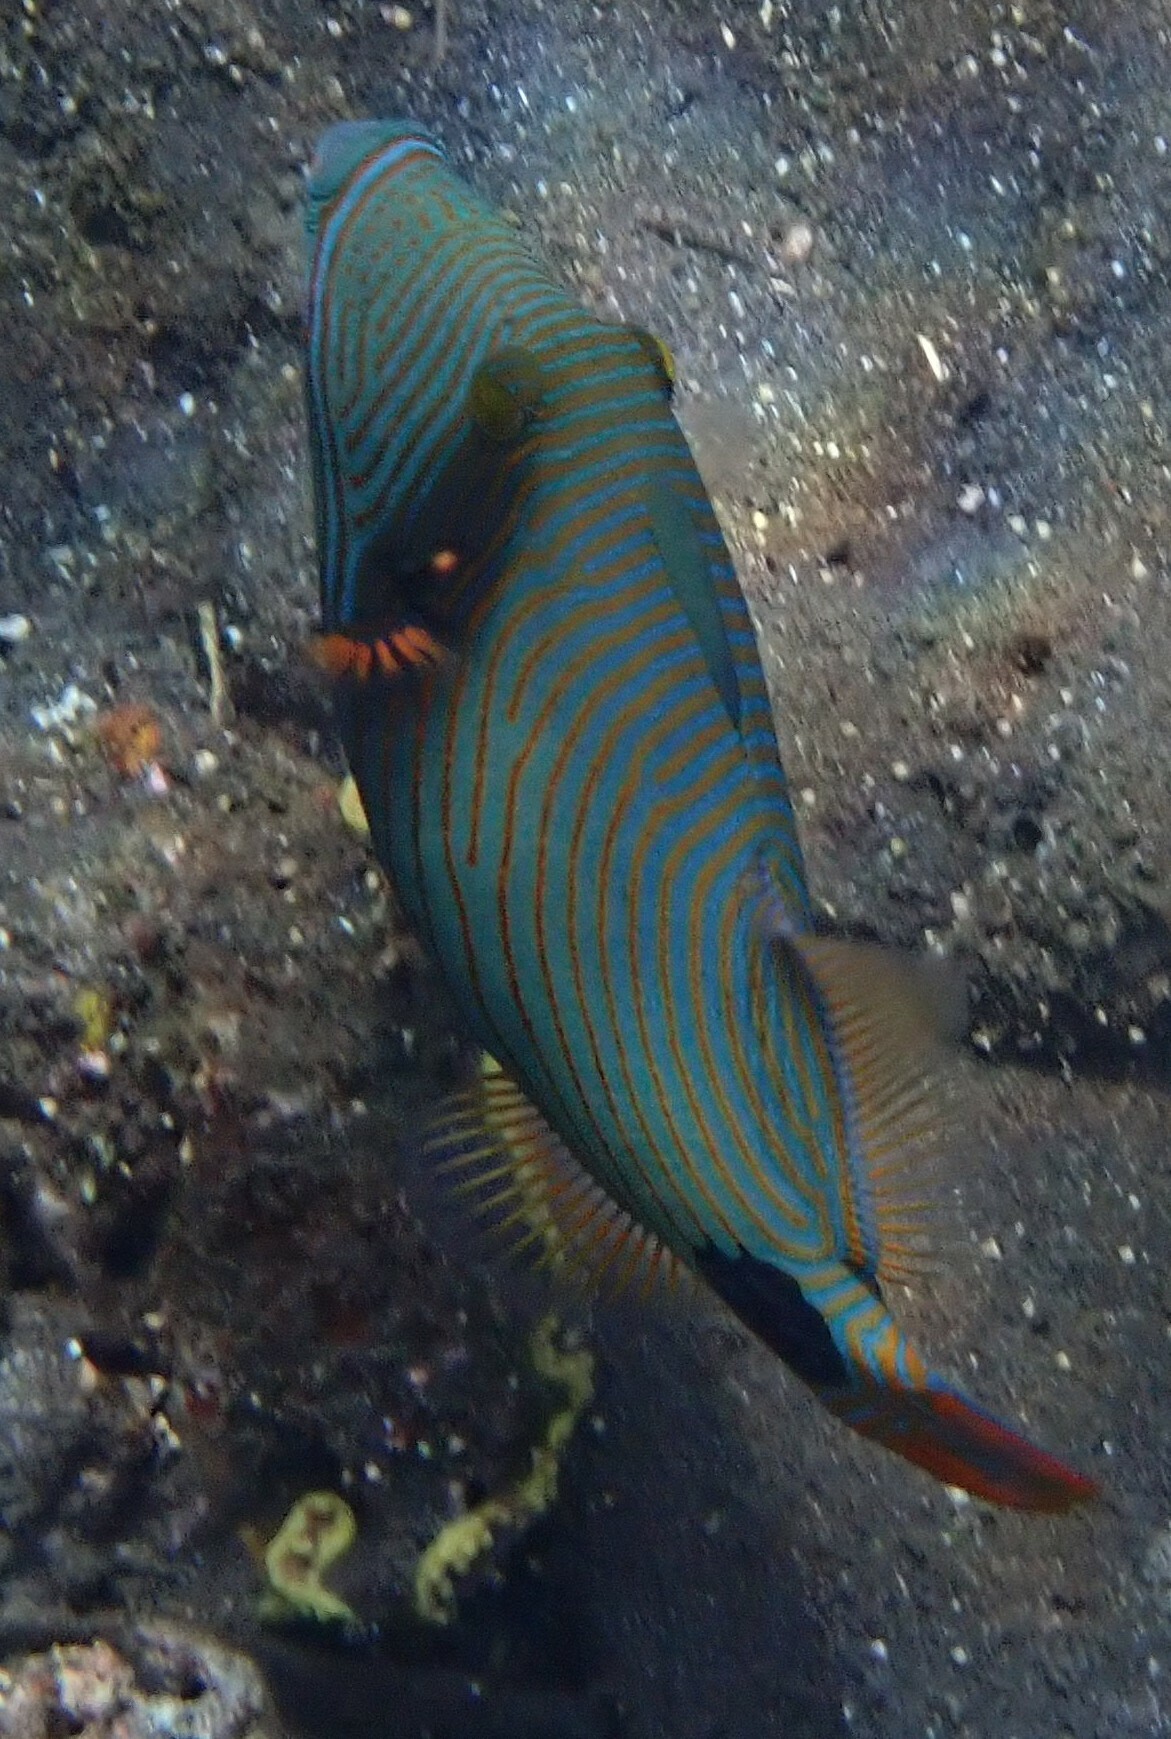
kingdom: Animalia
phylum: Chordata
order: Tetraodontiformes
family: Balistidae
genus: Balistapus
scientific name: Balistapus undulatus
